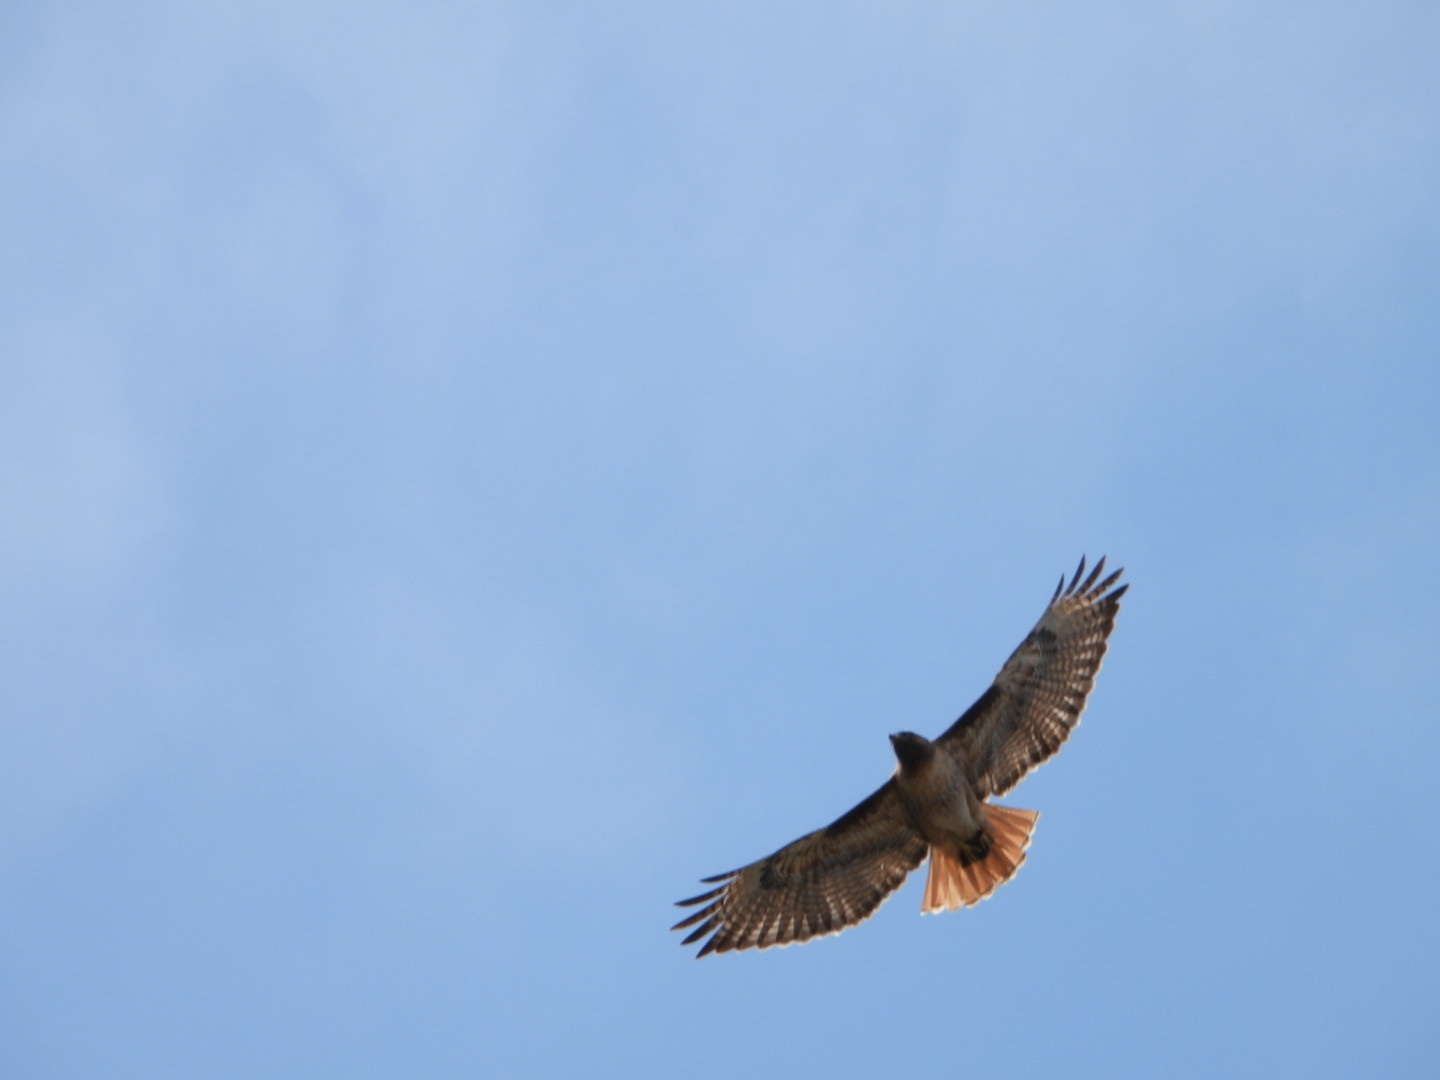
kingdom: Animalia
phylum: Chordata
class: Aves
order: Accipitriformes
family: Accipitridae
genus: Buteo
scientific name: Buteo jamaicensis
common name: Red-tailed hawk
